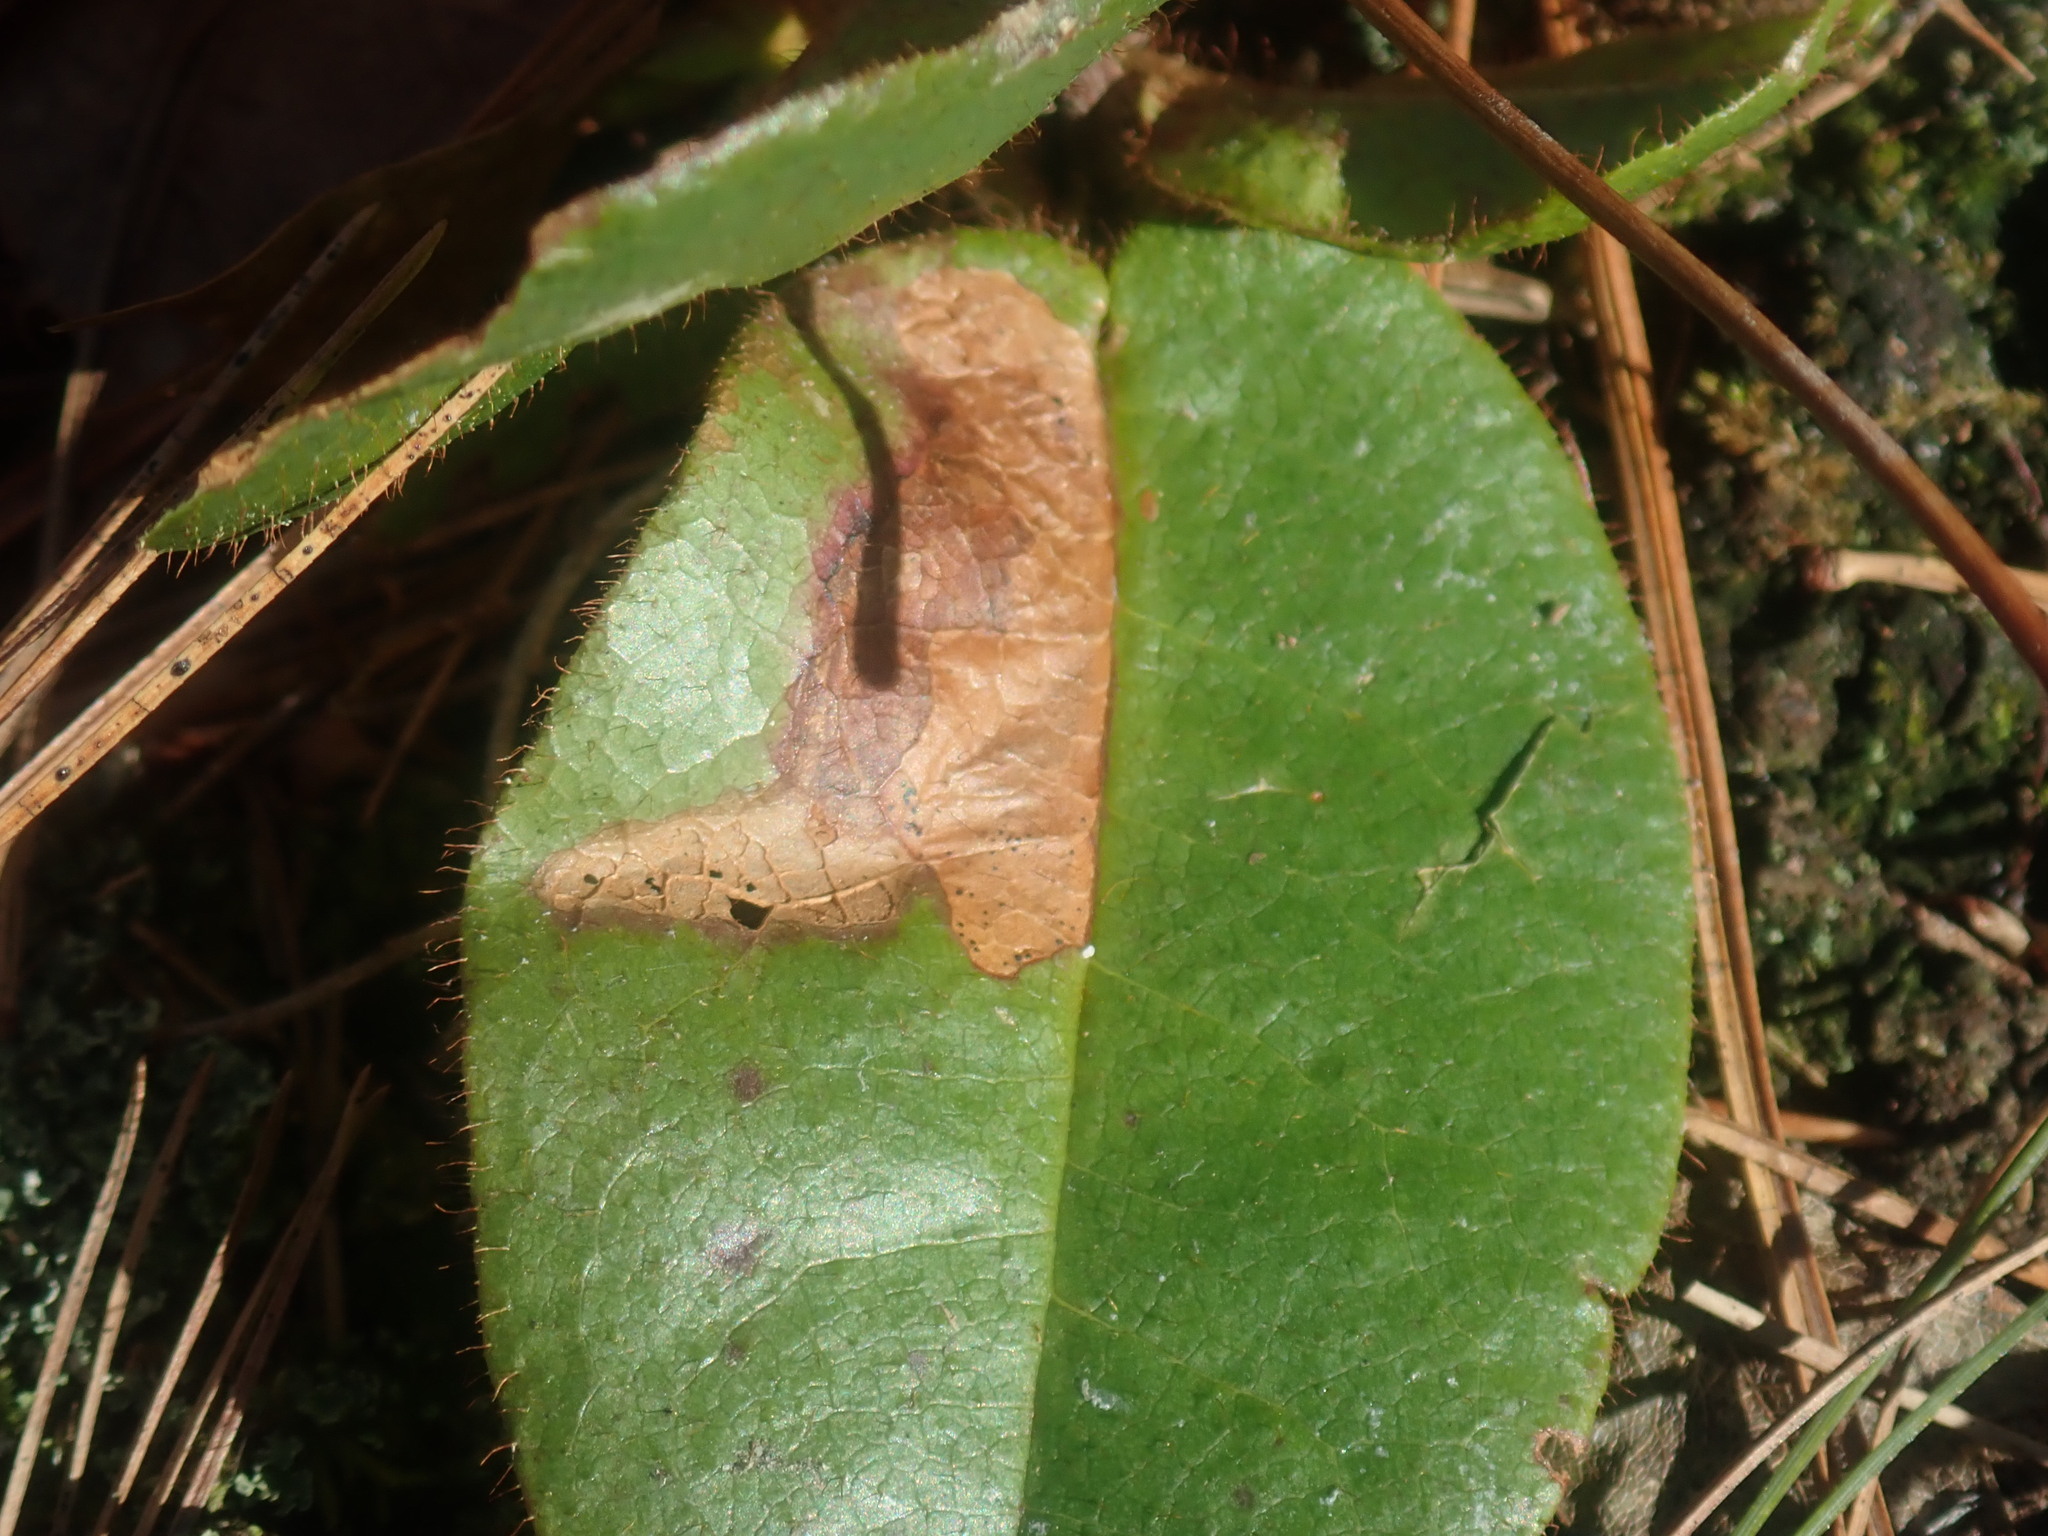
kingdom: Animalia
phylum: Arthropoda
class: Insecta
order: Coleoptera
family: Buprestidae
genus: Brachys
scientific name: Brachys
